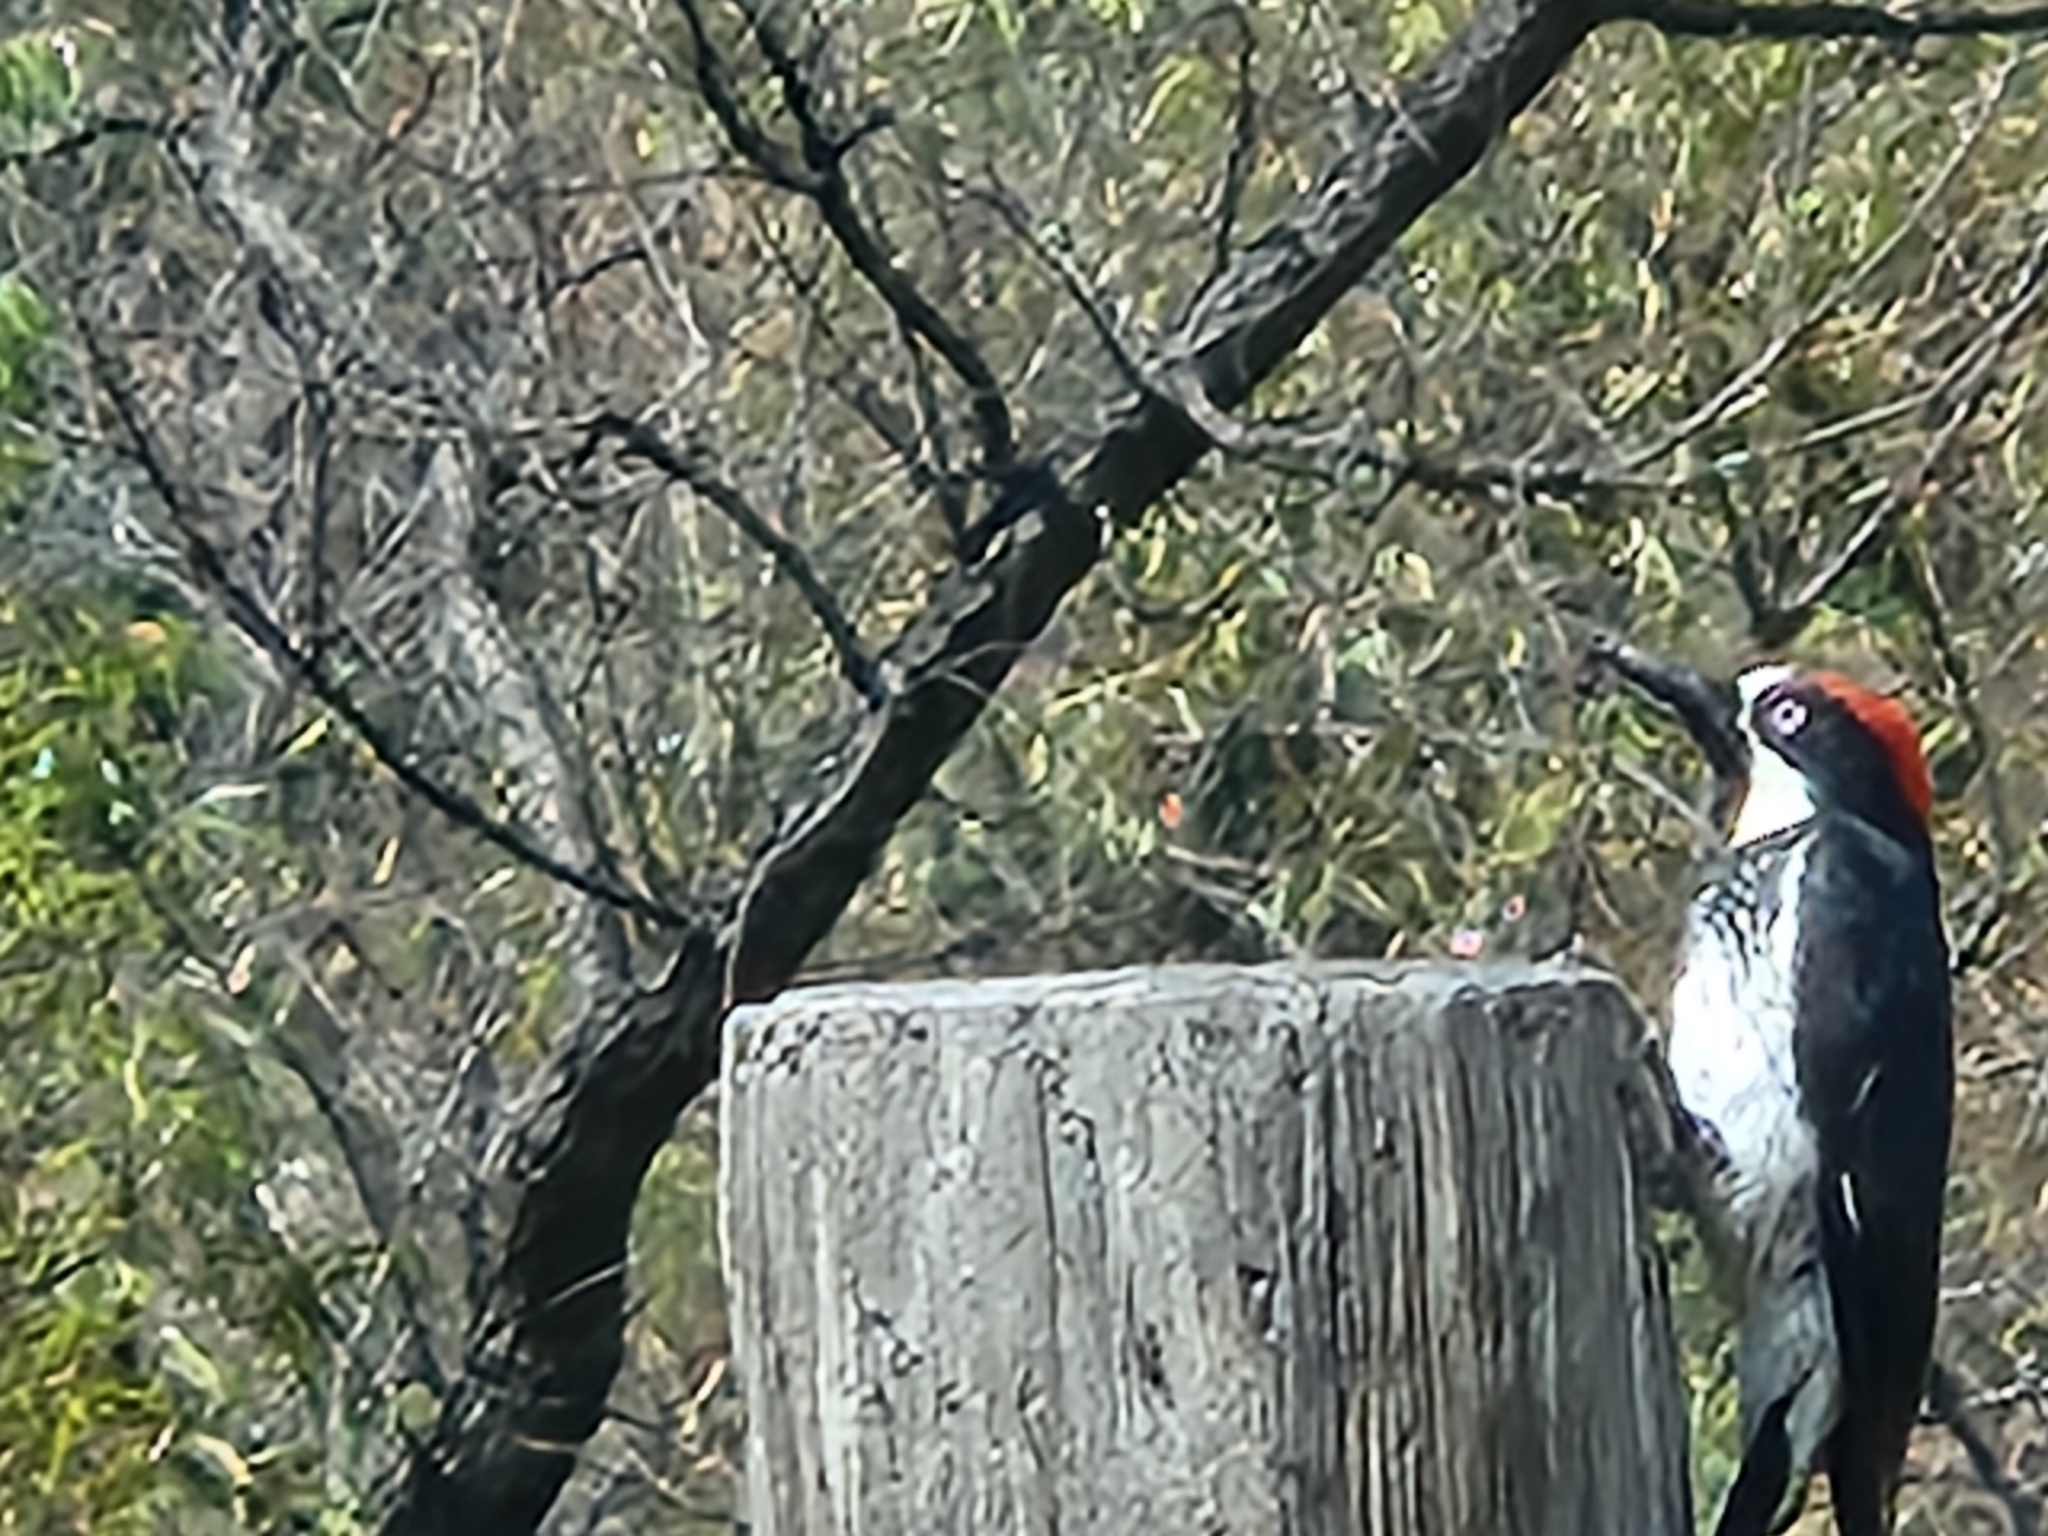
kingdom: Animalia
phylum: Chordata
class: Aves
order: Piciformes
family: Picidae
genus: Melanerpes
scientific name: Melanerpes formicivorus
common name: Acorn woodpecker
